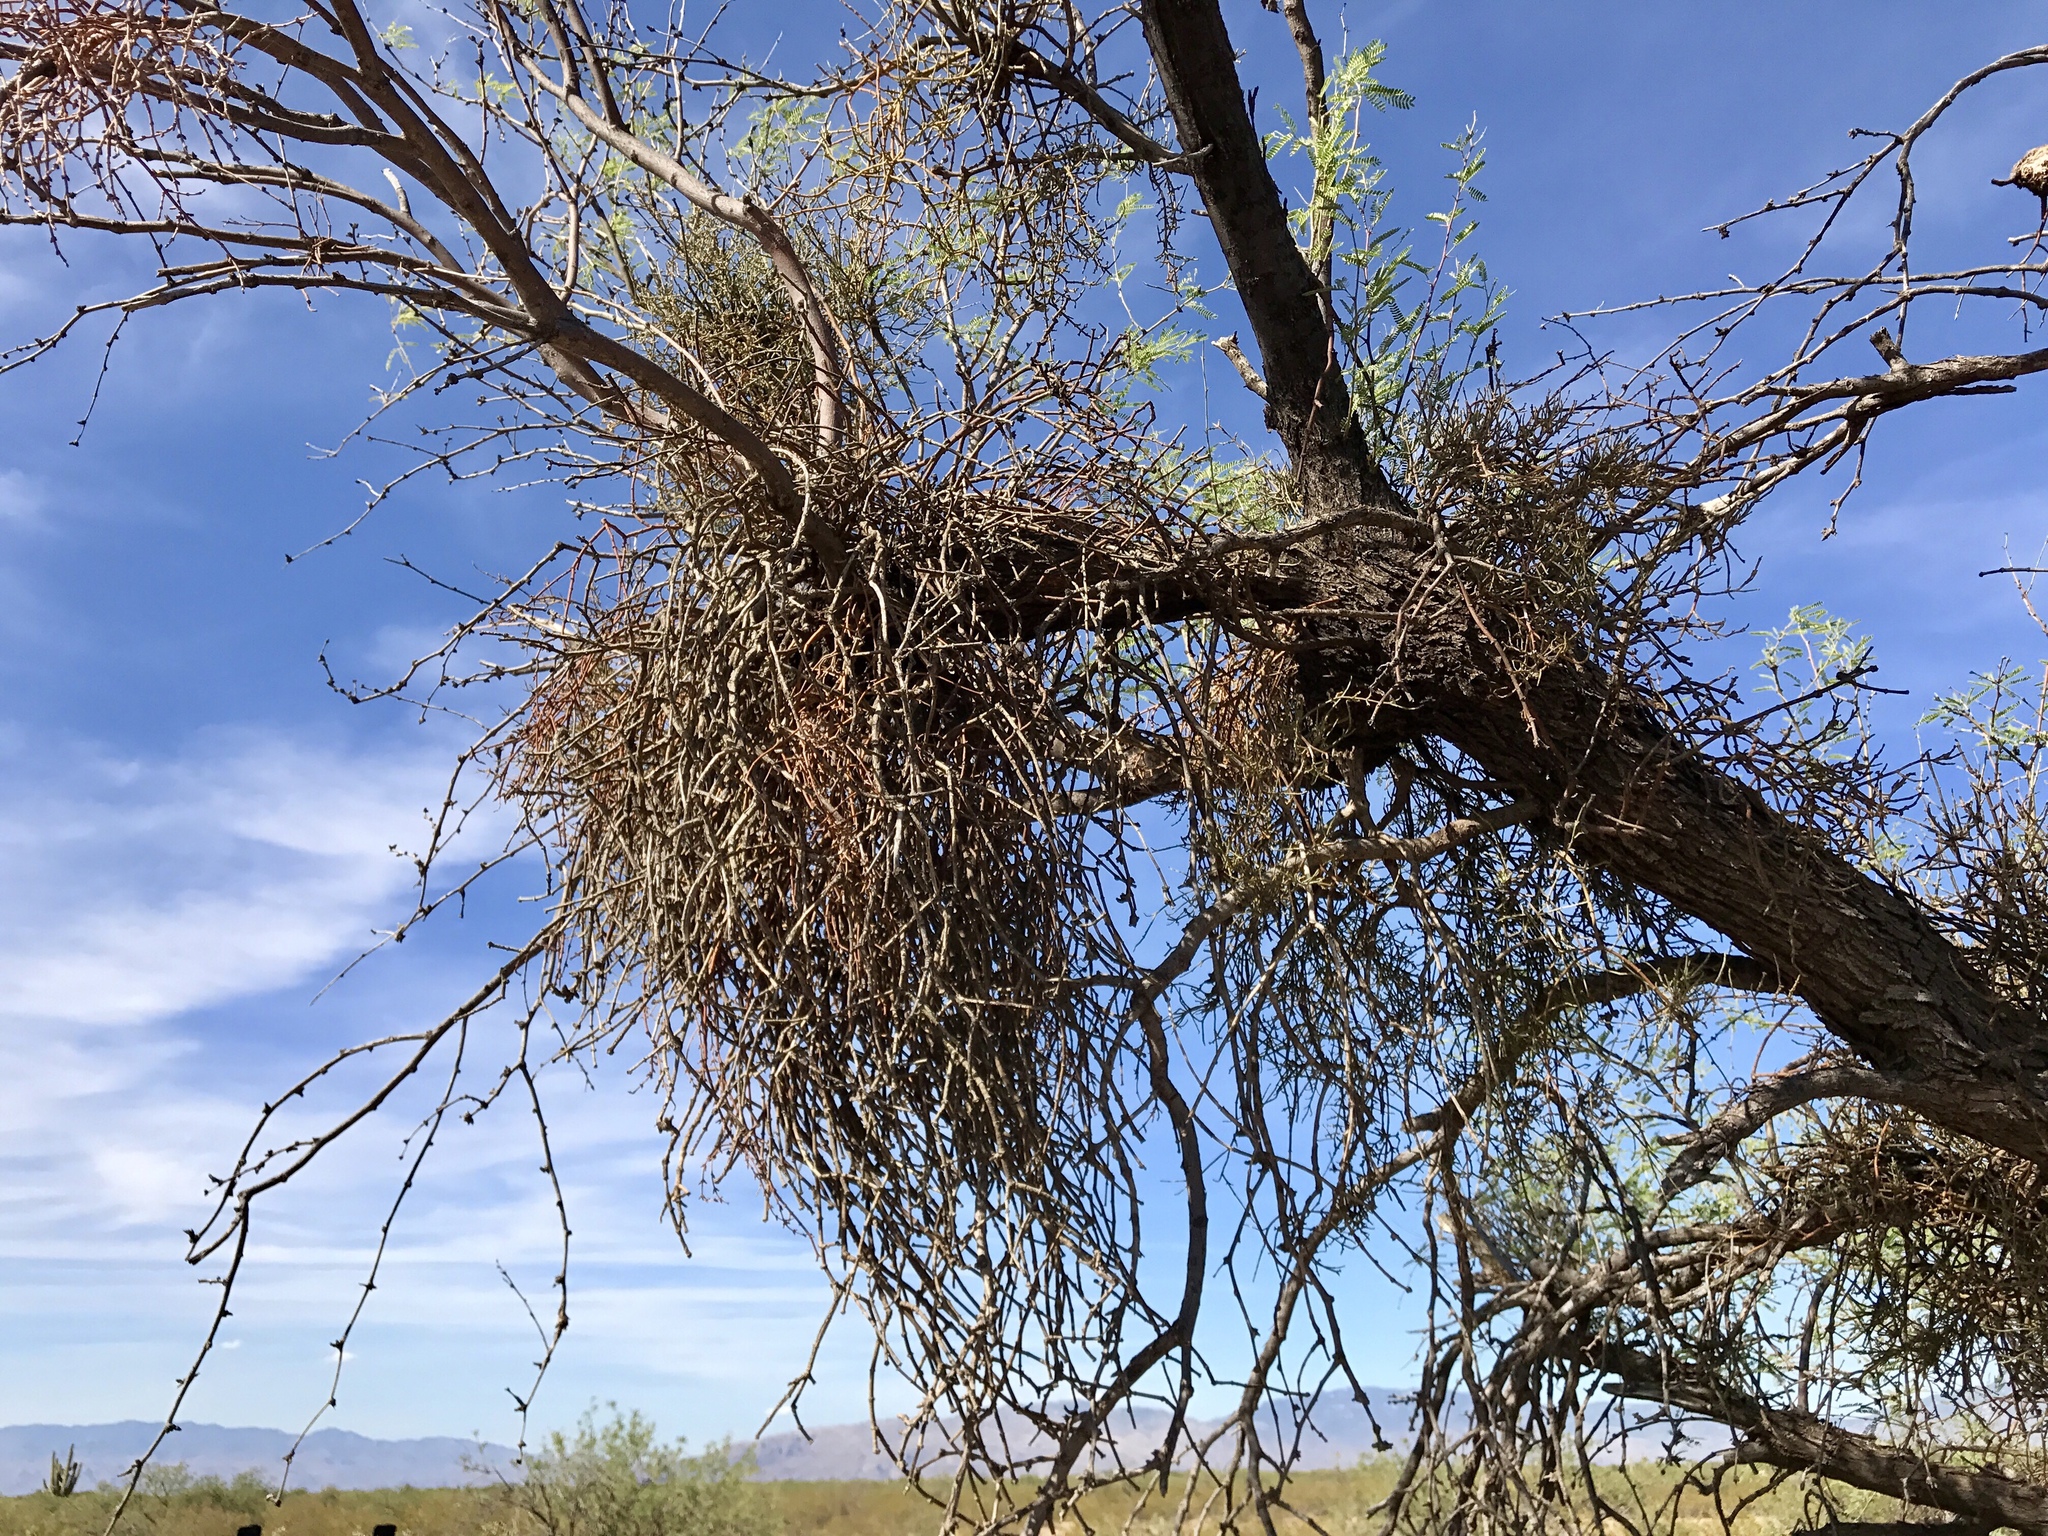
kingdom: Plantae
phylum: Tracheophyta
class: Magnoliopsida
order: Santalales
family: Viscaceae
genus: Phoradendron
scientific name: Phoradendron californicum
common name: Acacia mistletoe
